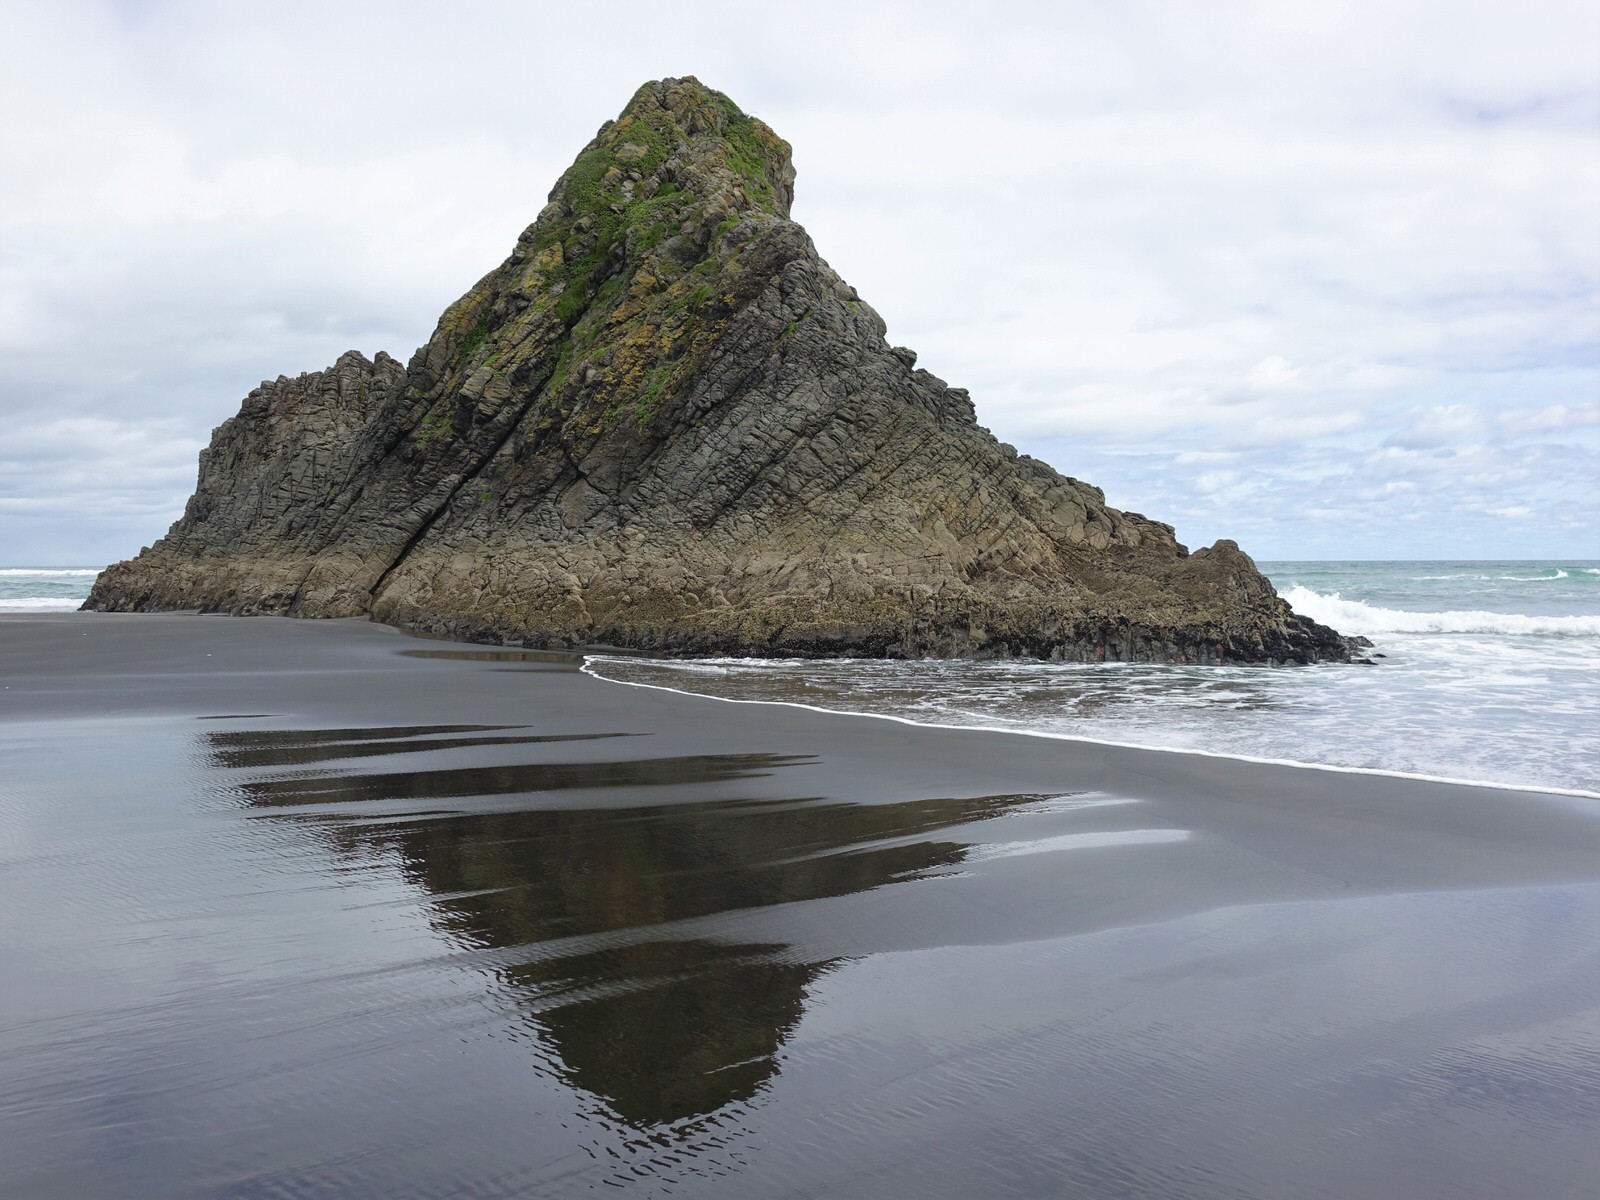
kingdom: Animalia
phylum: Chordata
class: Mammalia
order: Carnivora
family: Otariidae
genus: Arctocephalus
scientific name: Arctocephalus forsteri
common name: New zealand fur seal
